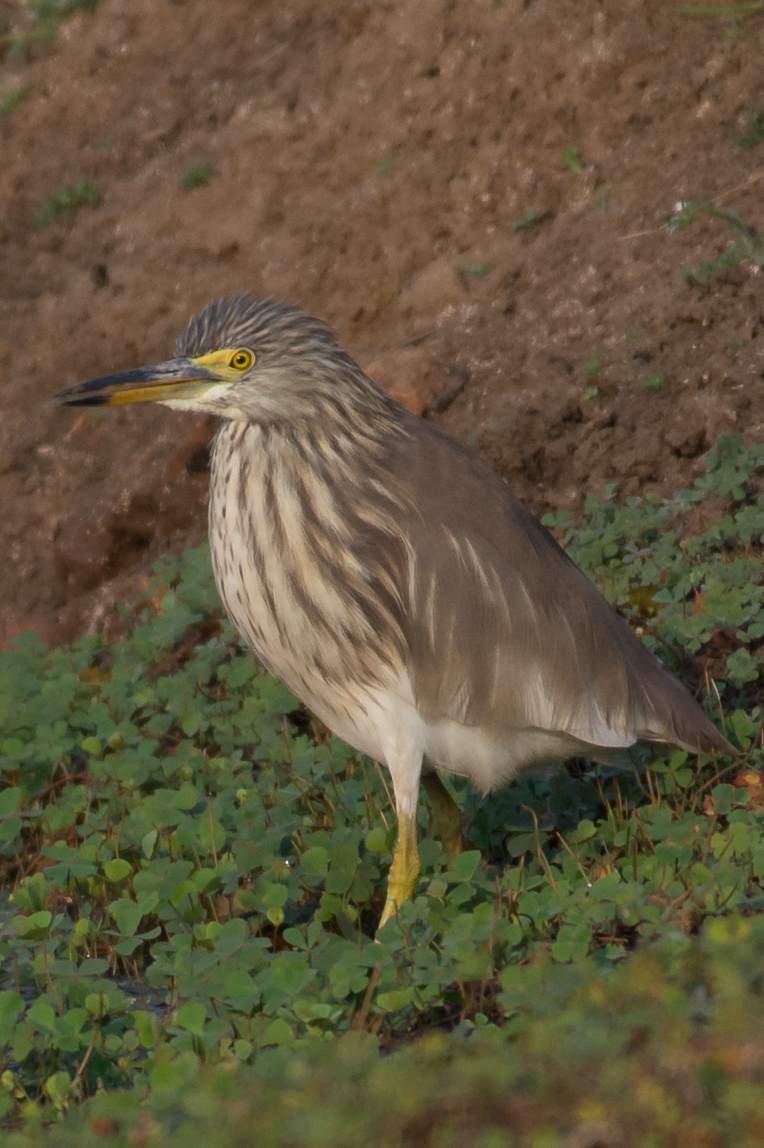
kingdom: Animalia
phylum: Chordata
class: Aves
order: Pelecaniformes
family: Ardeidae
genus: Ardeola
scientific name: Ardeola grayii
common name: Indian pond heron
